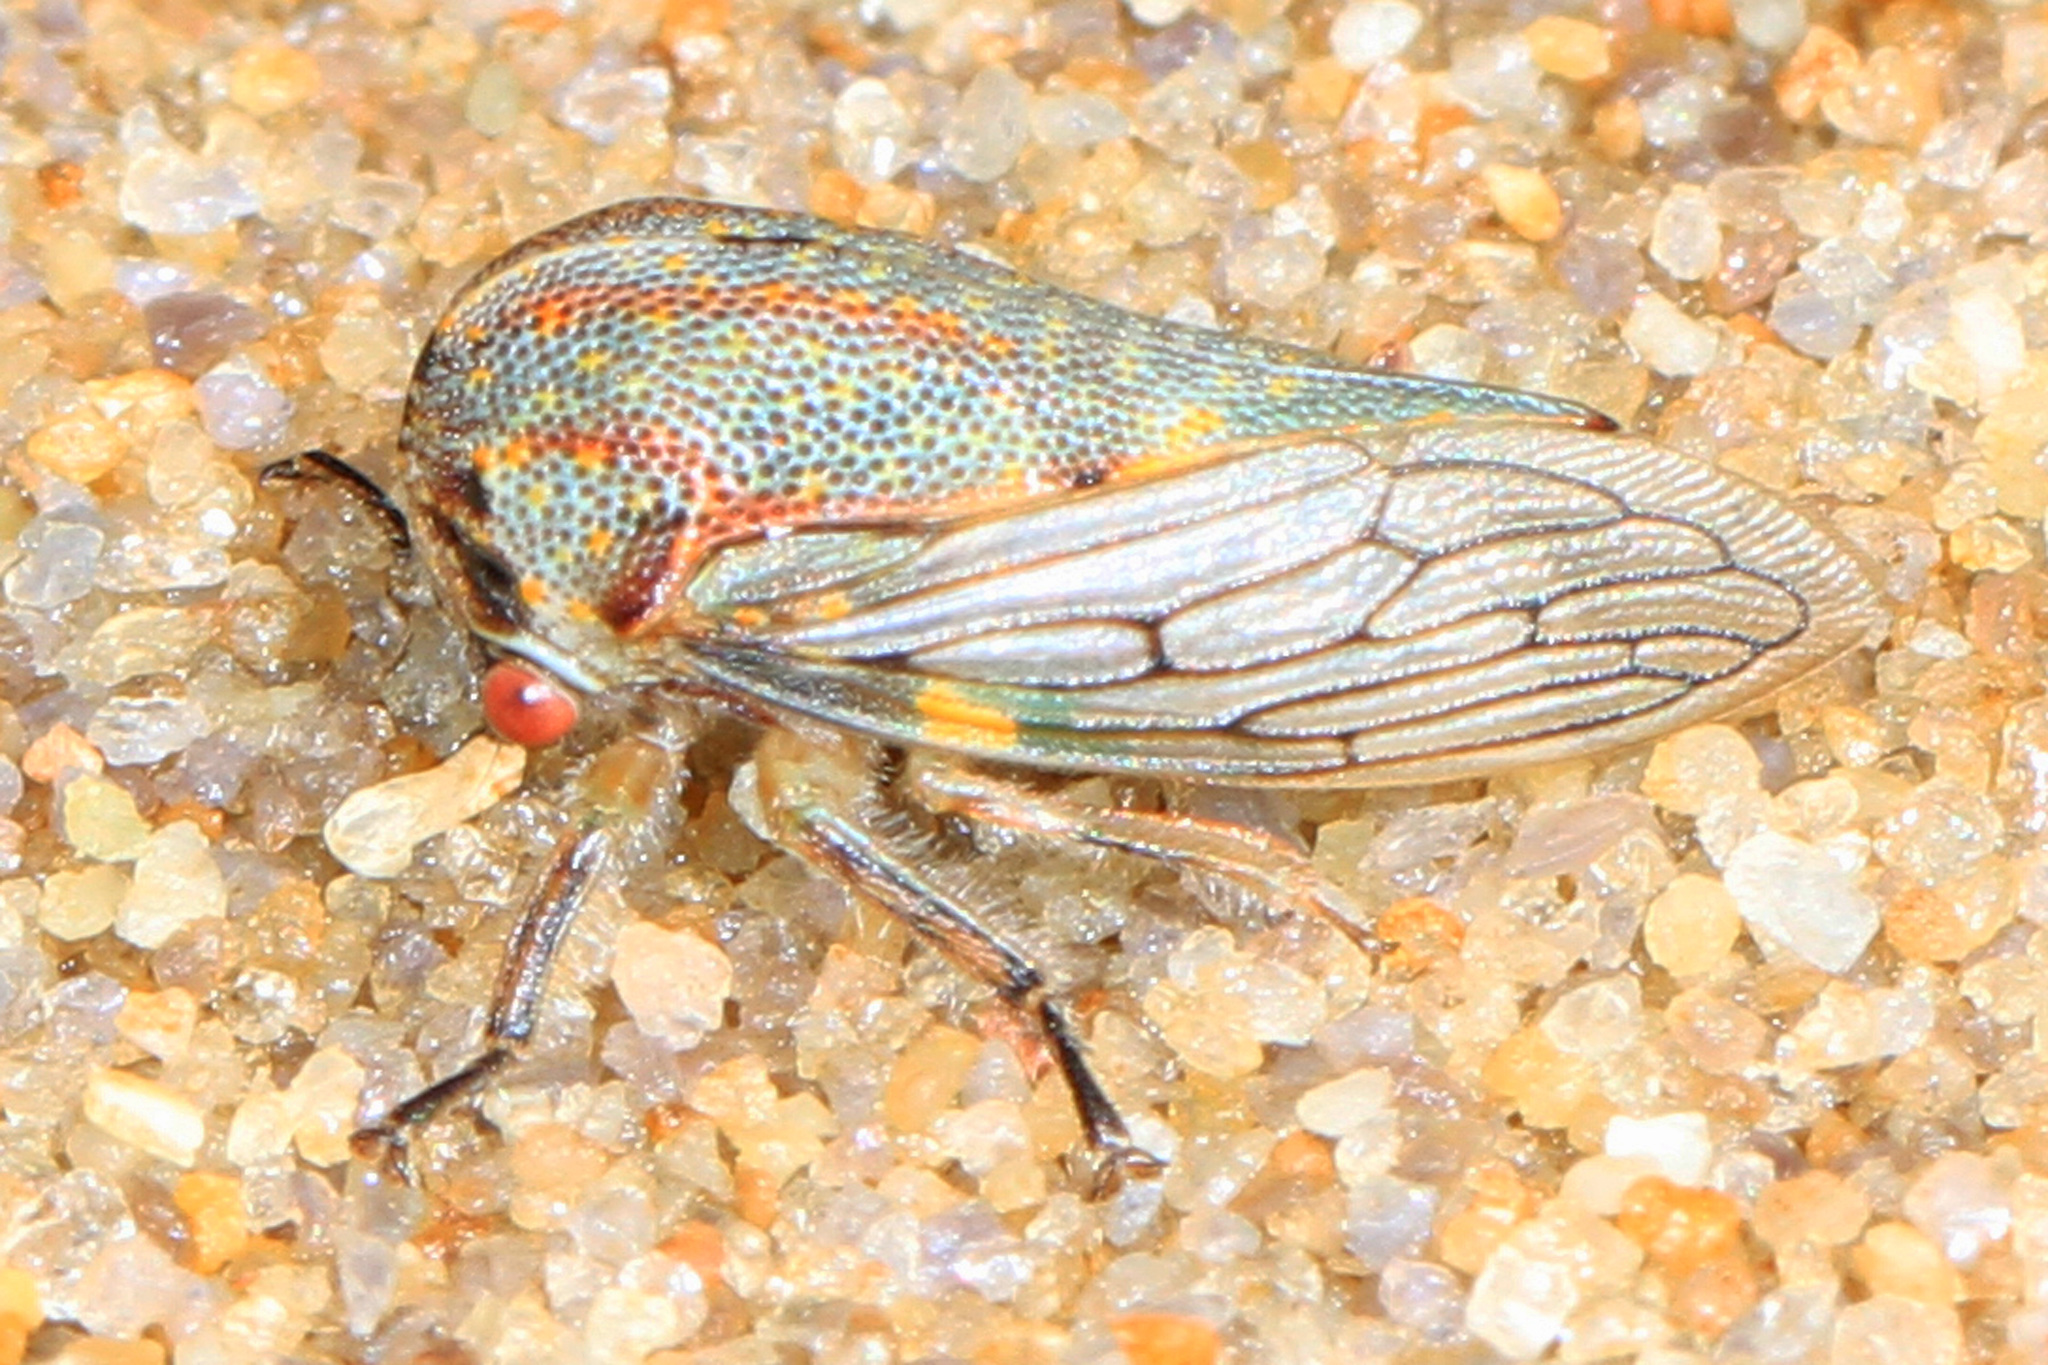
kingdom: Animalia
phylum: Arthropoda
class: Insecta
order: Hemiptera
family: Membracidae
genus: Platycotis
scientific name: Platycotis vittatus
